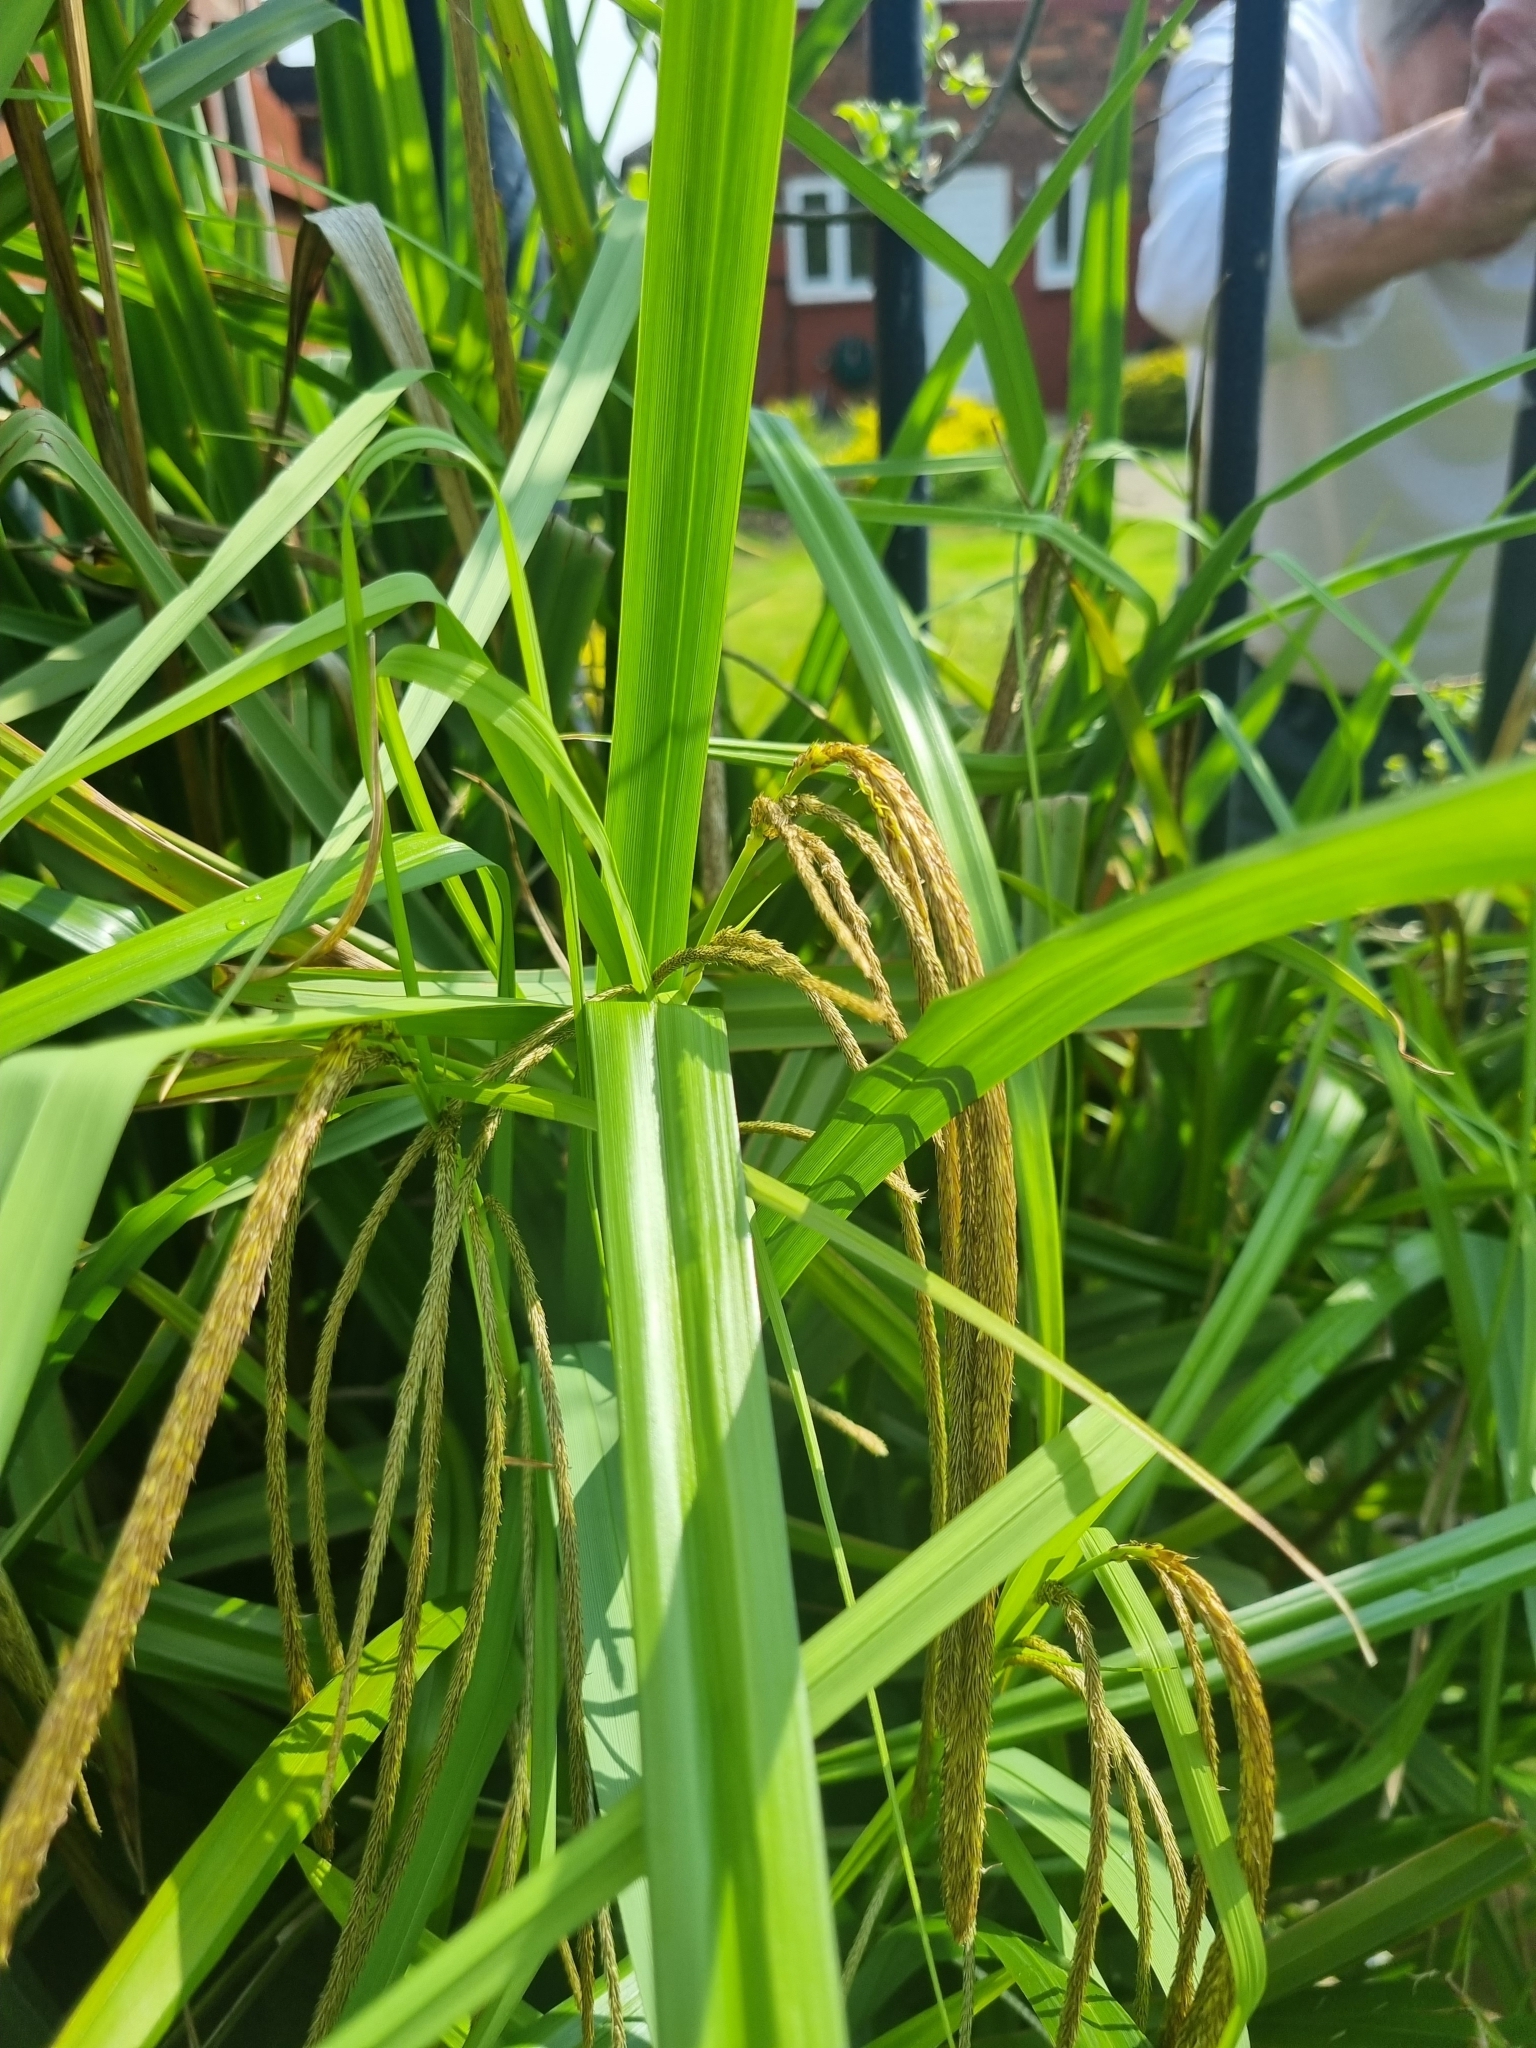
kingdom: Plantae
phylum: Tracheophyta
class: Liliopsida
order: Poales
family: Cyperaceae
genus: Carex
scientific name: Carex pendula
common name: Pendulous sedge
